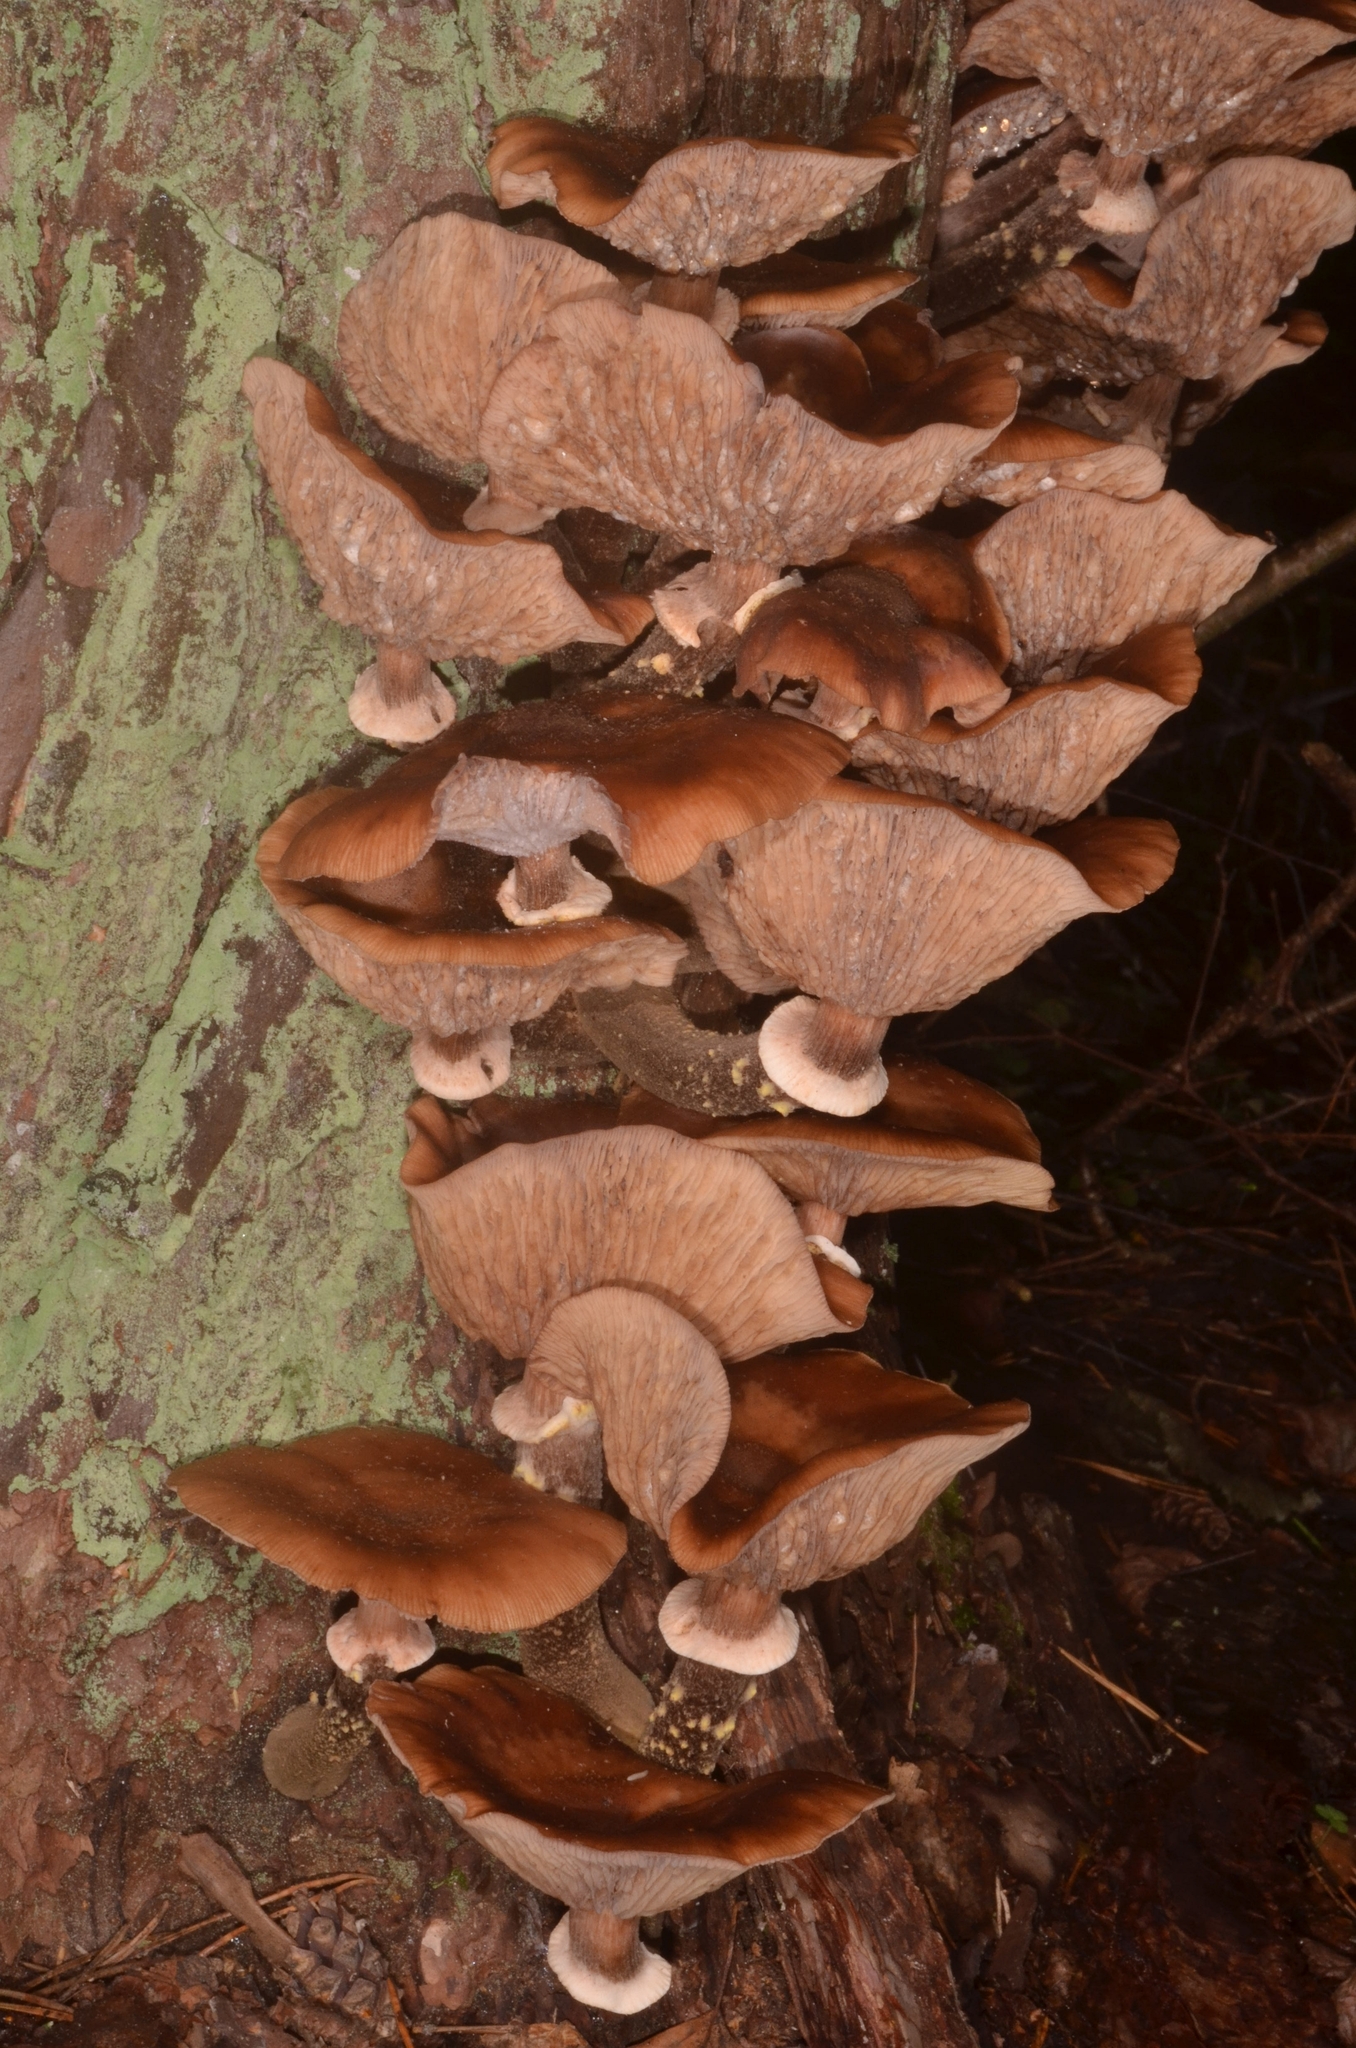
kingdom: Fungi
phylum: Basidiomycota
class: Agaricomycetes
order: Agaricales
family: Physalacriaceae
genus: Armillaria
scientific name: Armillaria ostoyae
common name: Dark honey fungus
